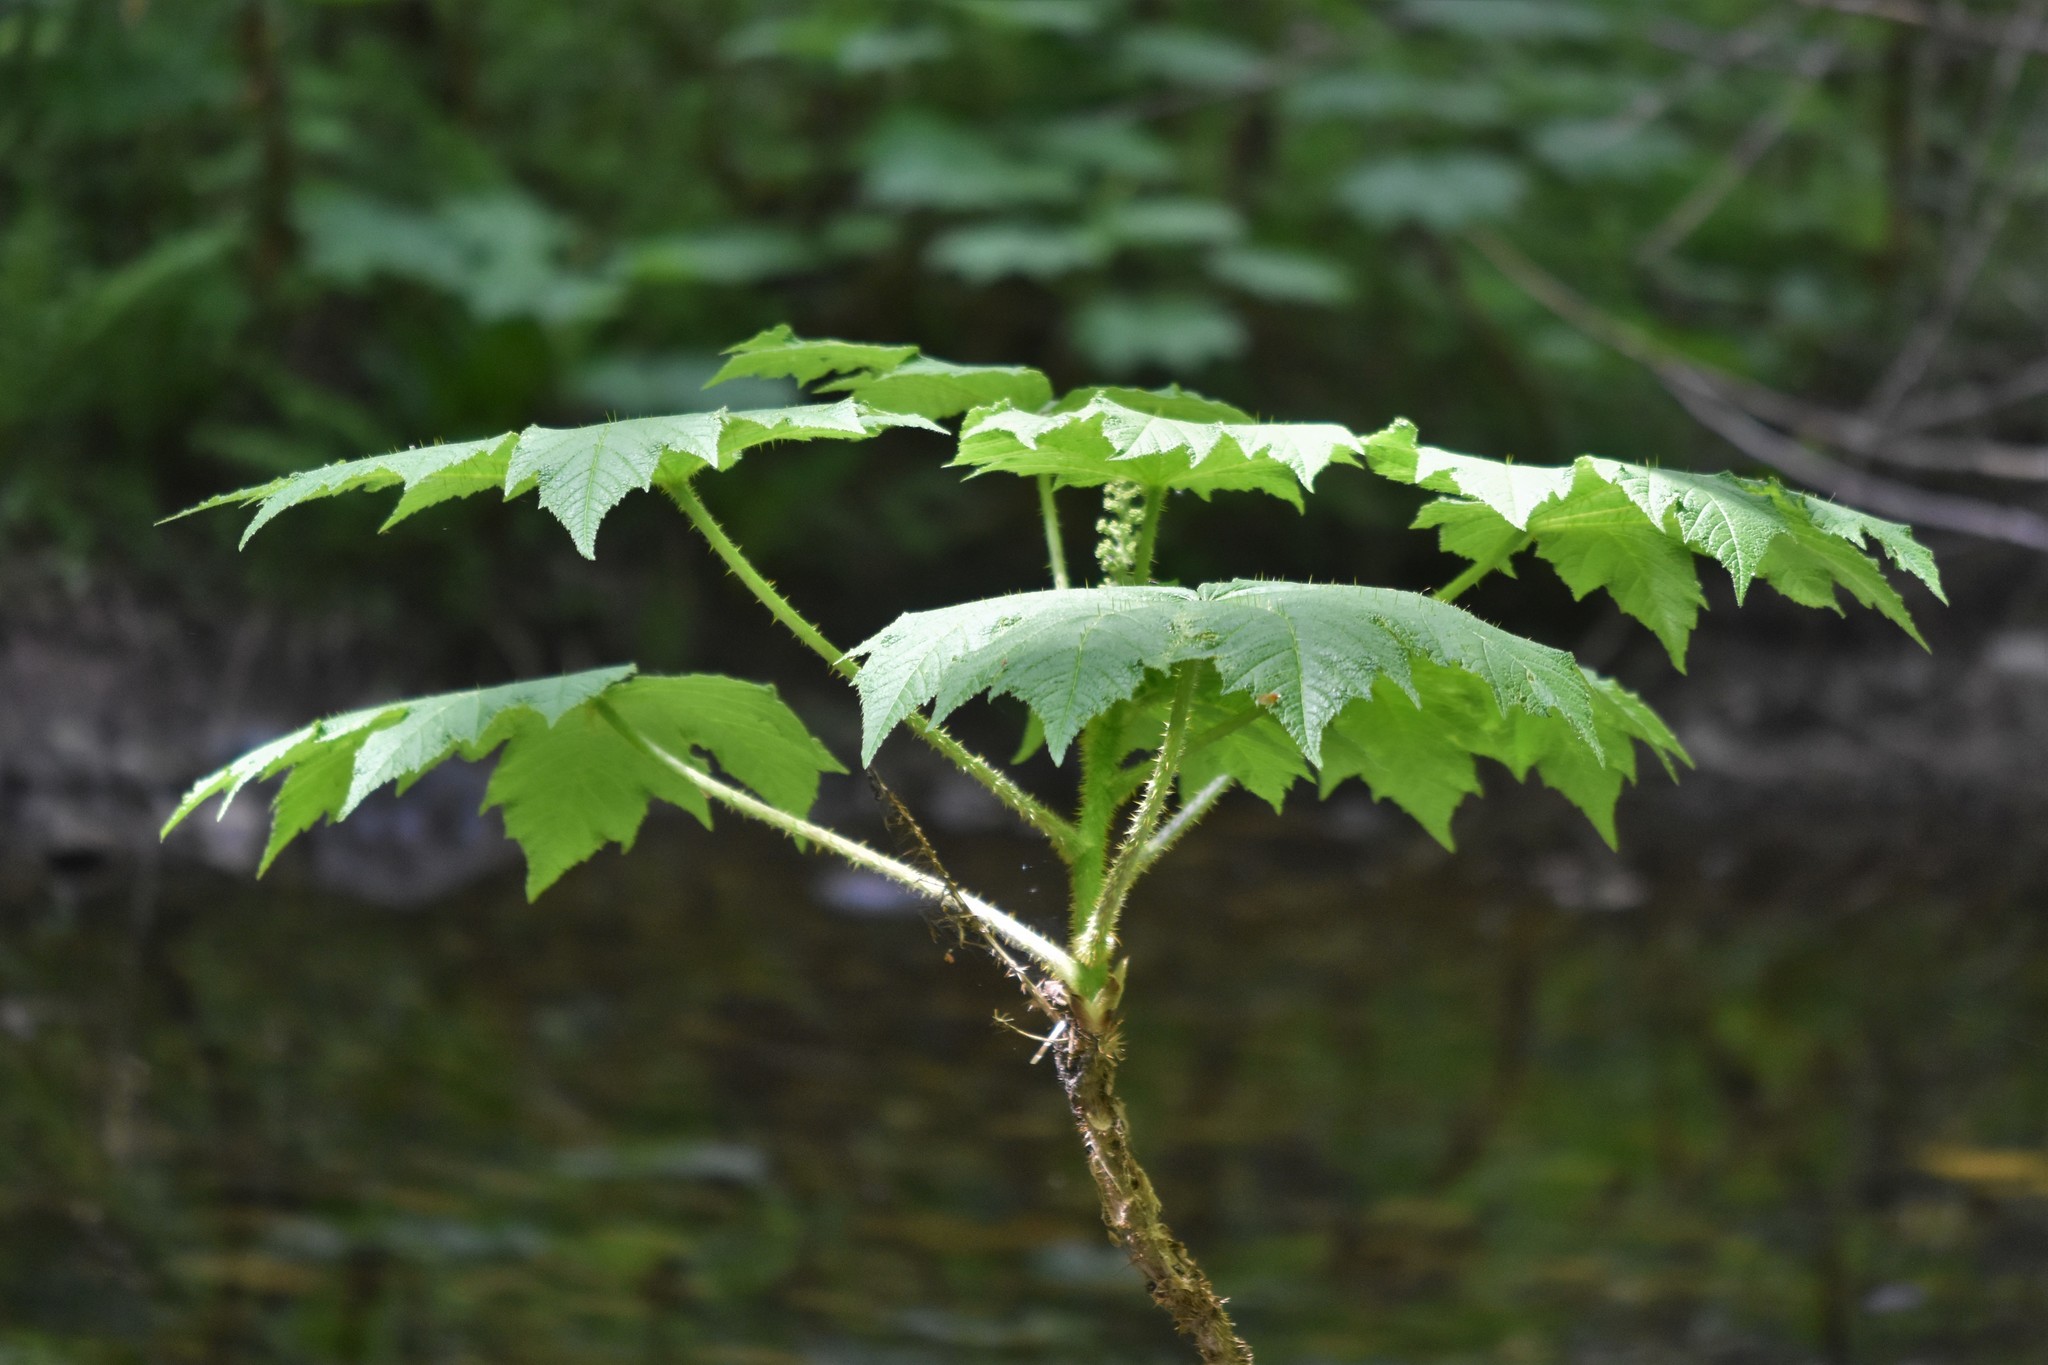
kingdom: Plantae
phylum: Tracheophyta
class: Magnoliopsida
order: Apiales
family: Araliaceae
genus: Oplopanax
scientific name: Oplopanax horridus
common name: Devil's walking-stick
